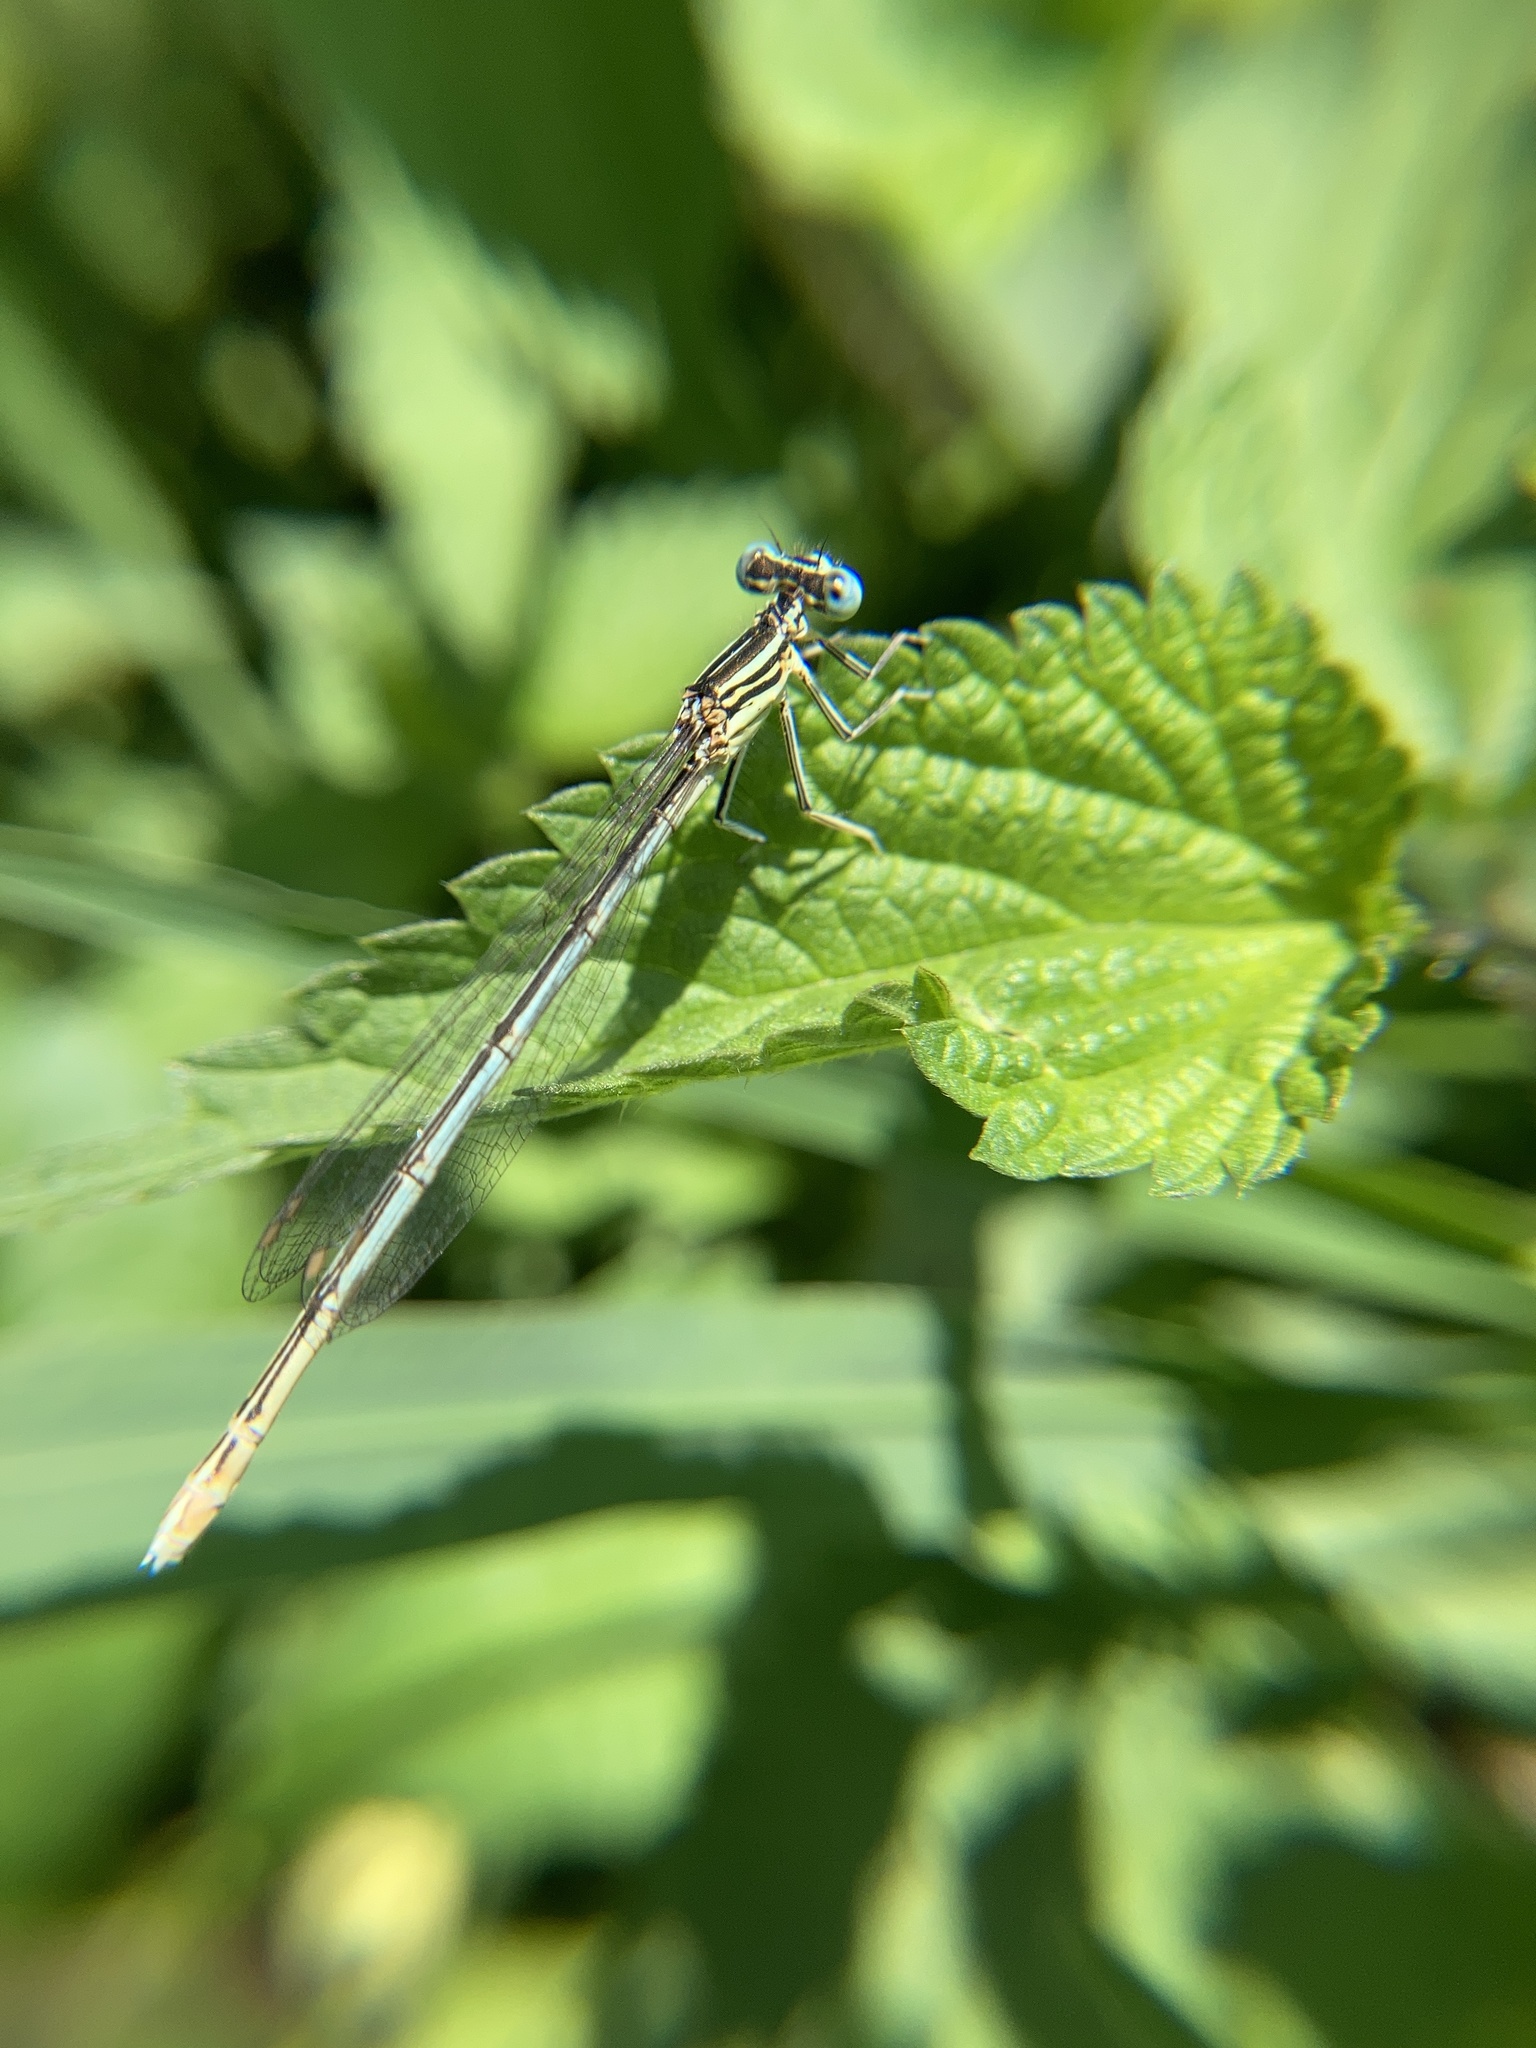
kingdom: Animalia
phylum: Arthropoda
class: Insecta
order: Odonata
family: Platycnemididae
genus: Platycnemis
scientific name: Platycnemis pennipes
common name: White-legged damselfly
